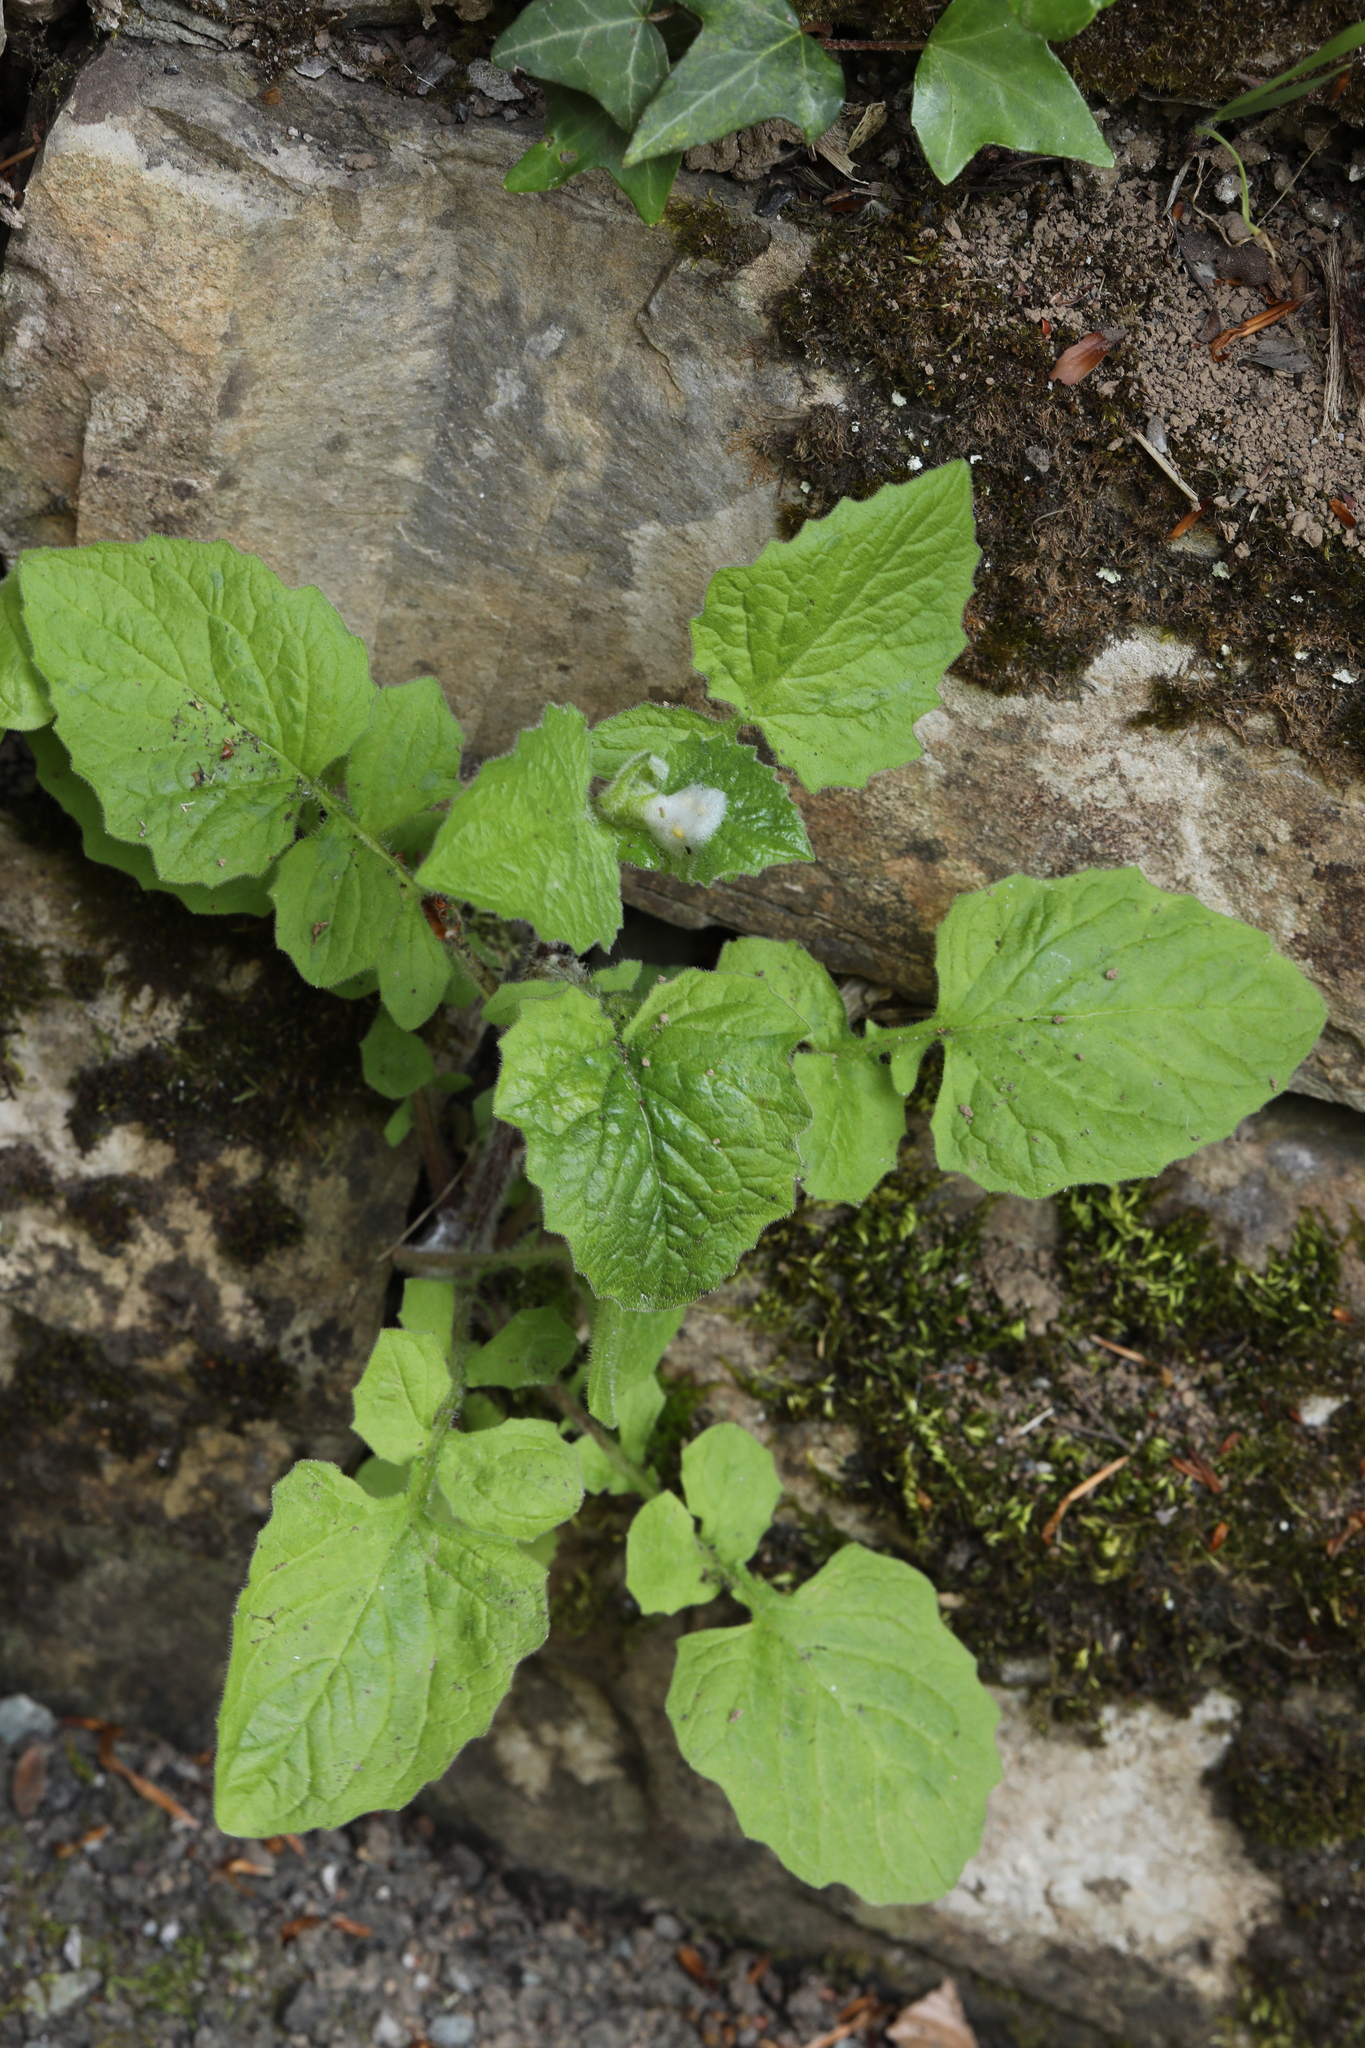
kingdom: Plantae
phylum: Tracheophyta
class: Magnoliopsida
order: Asterales
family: Asteraceae
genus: Lapsana
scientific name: Lapsana communis
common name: Nipplewort
